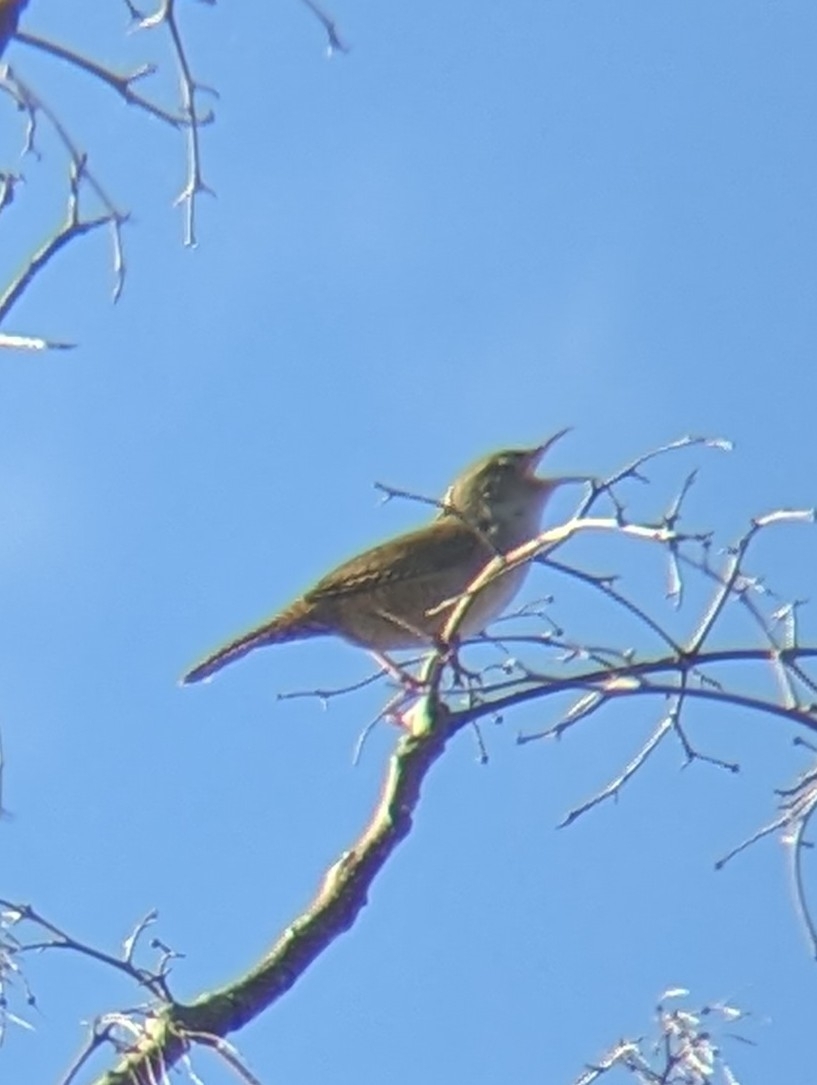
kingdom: Animalia
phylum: Chordata
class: Aves
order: Passeriformes
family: Troglodytidae
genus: Troglodytes
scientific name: Troglodytes aedon
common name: House wren
